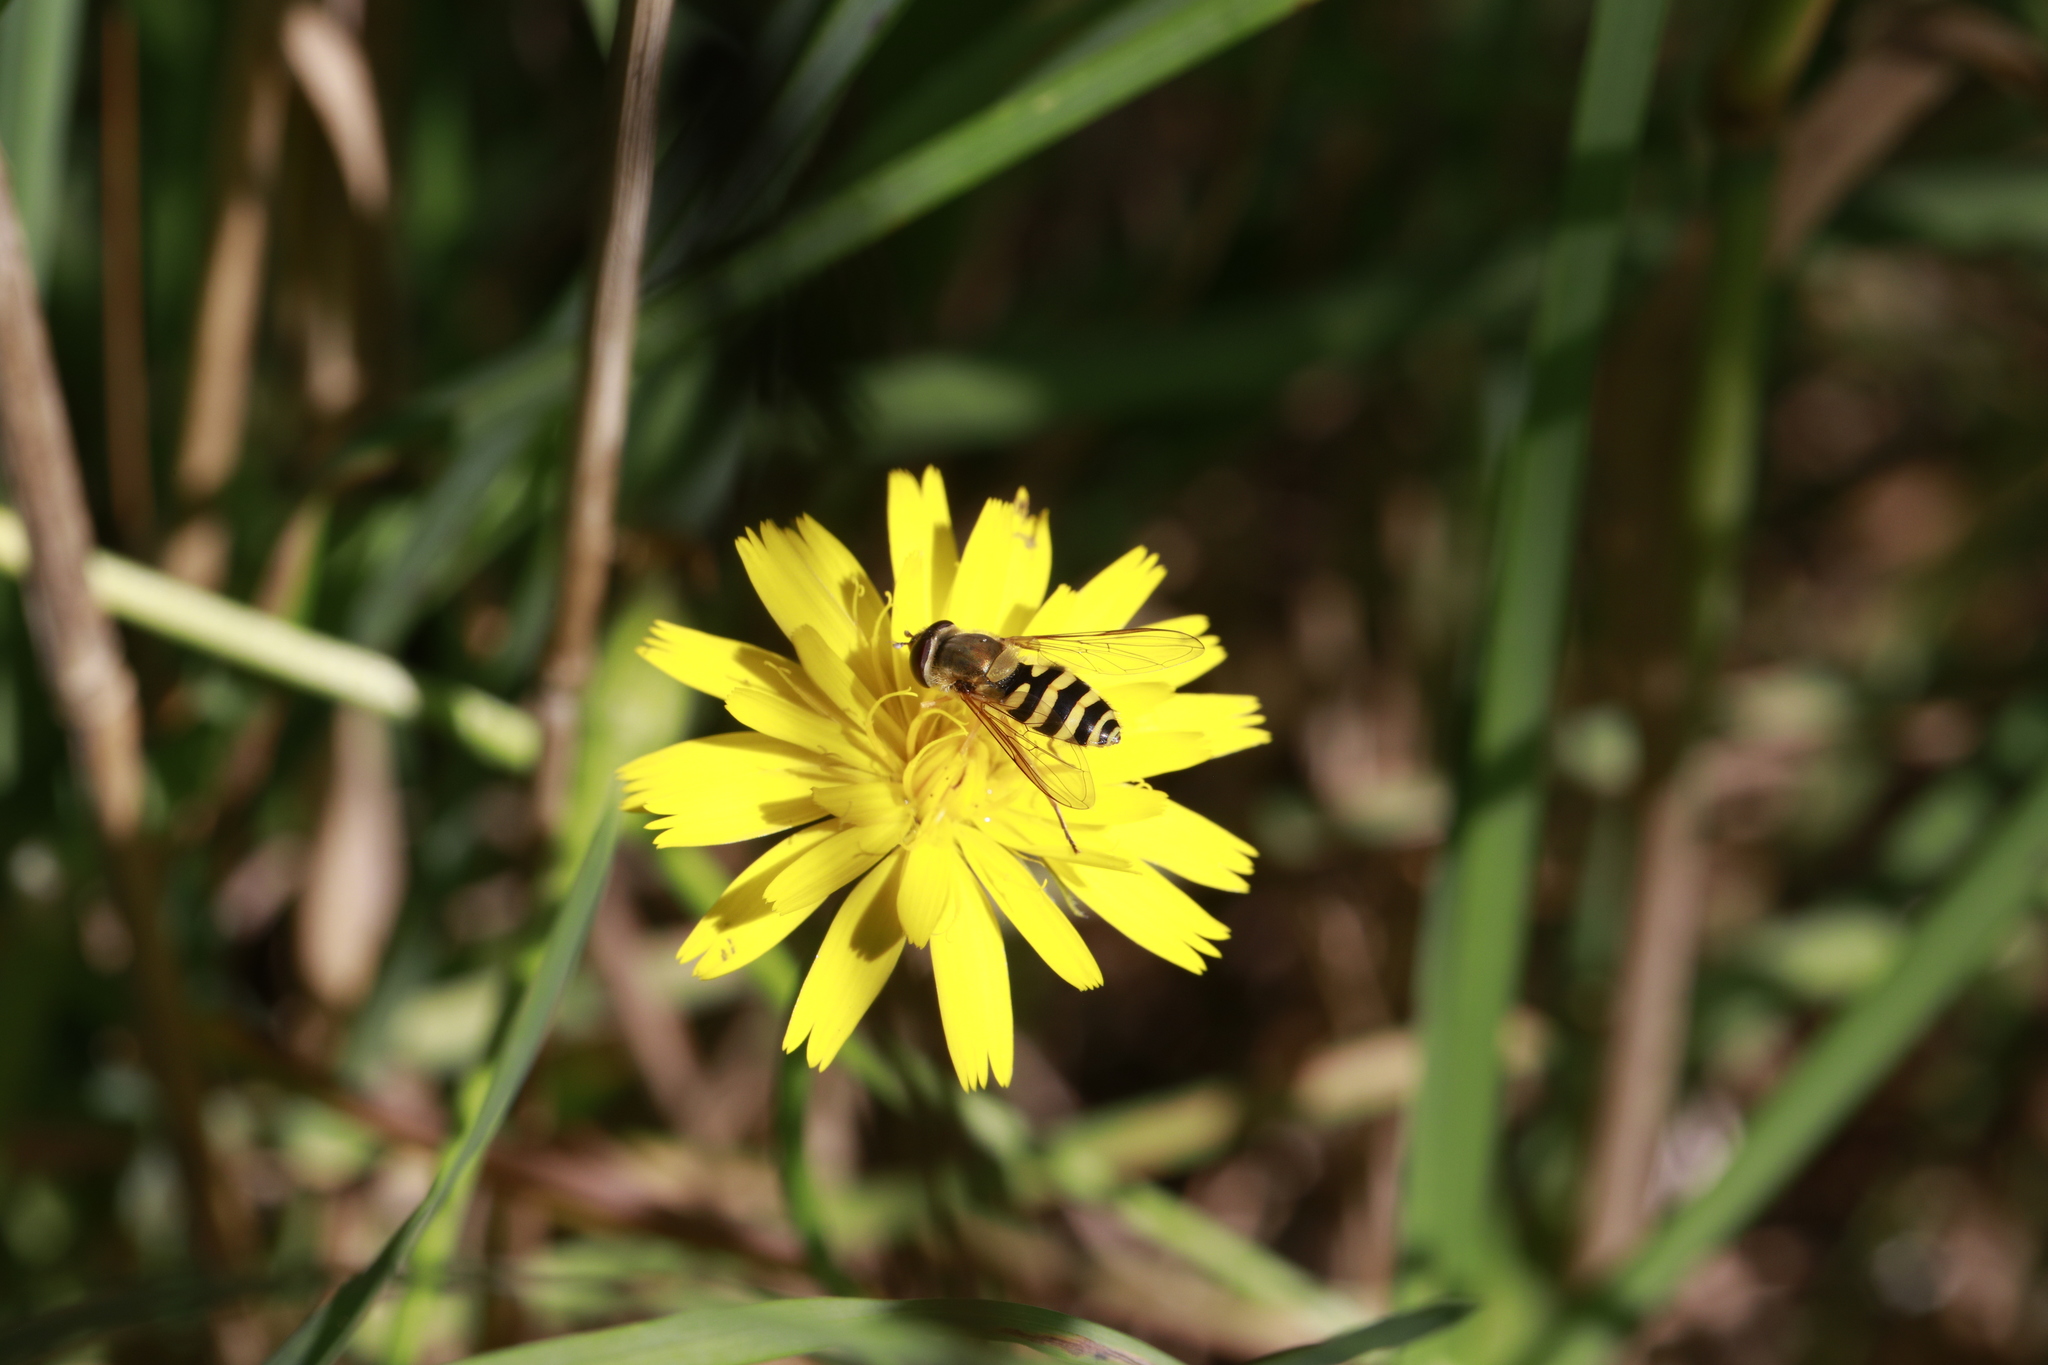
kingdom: Animalia
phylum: Arthropoda
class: Insecta
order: Diptera
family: Syrphidae
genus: Syrphus
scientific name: Syrphus ribesii
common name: Common flower fly
